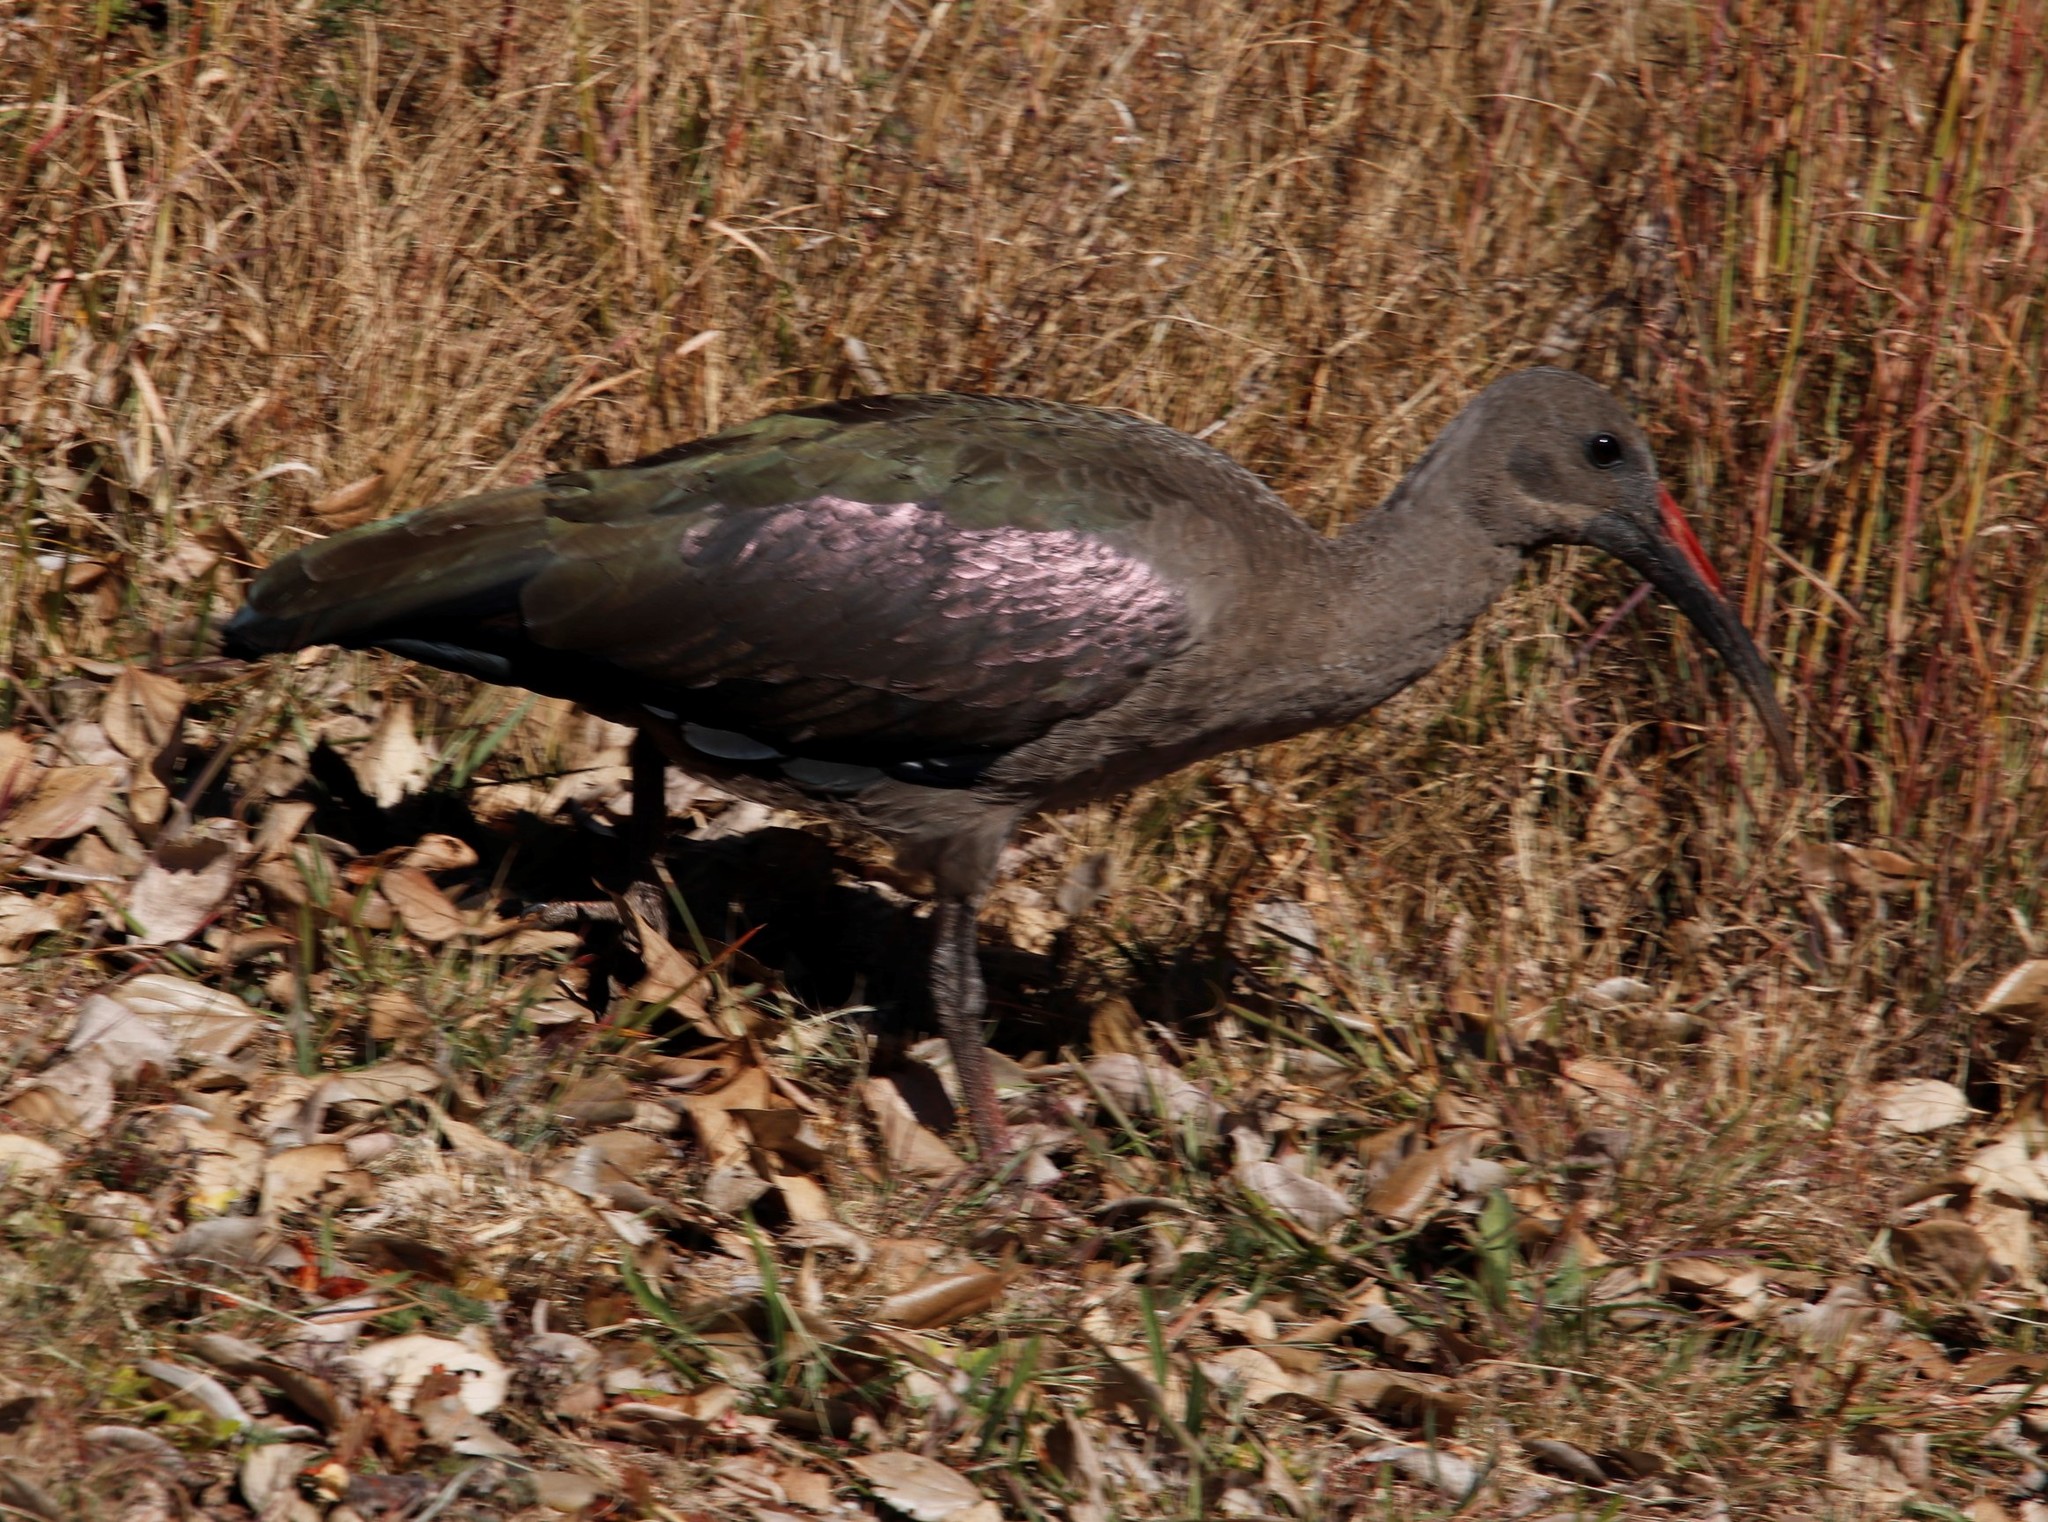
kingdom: Animalia
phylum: Chordata
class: Aves
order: Pelecaniformes
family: Threskiornithidae
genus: Bostrychia
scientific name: Bostrychia hagedash
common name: Hadada ibis
